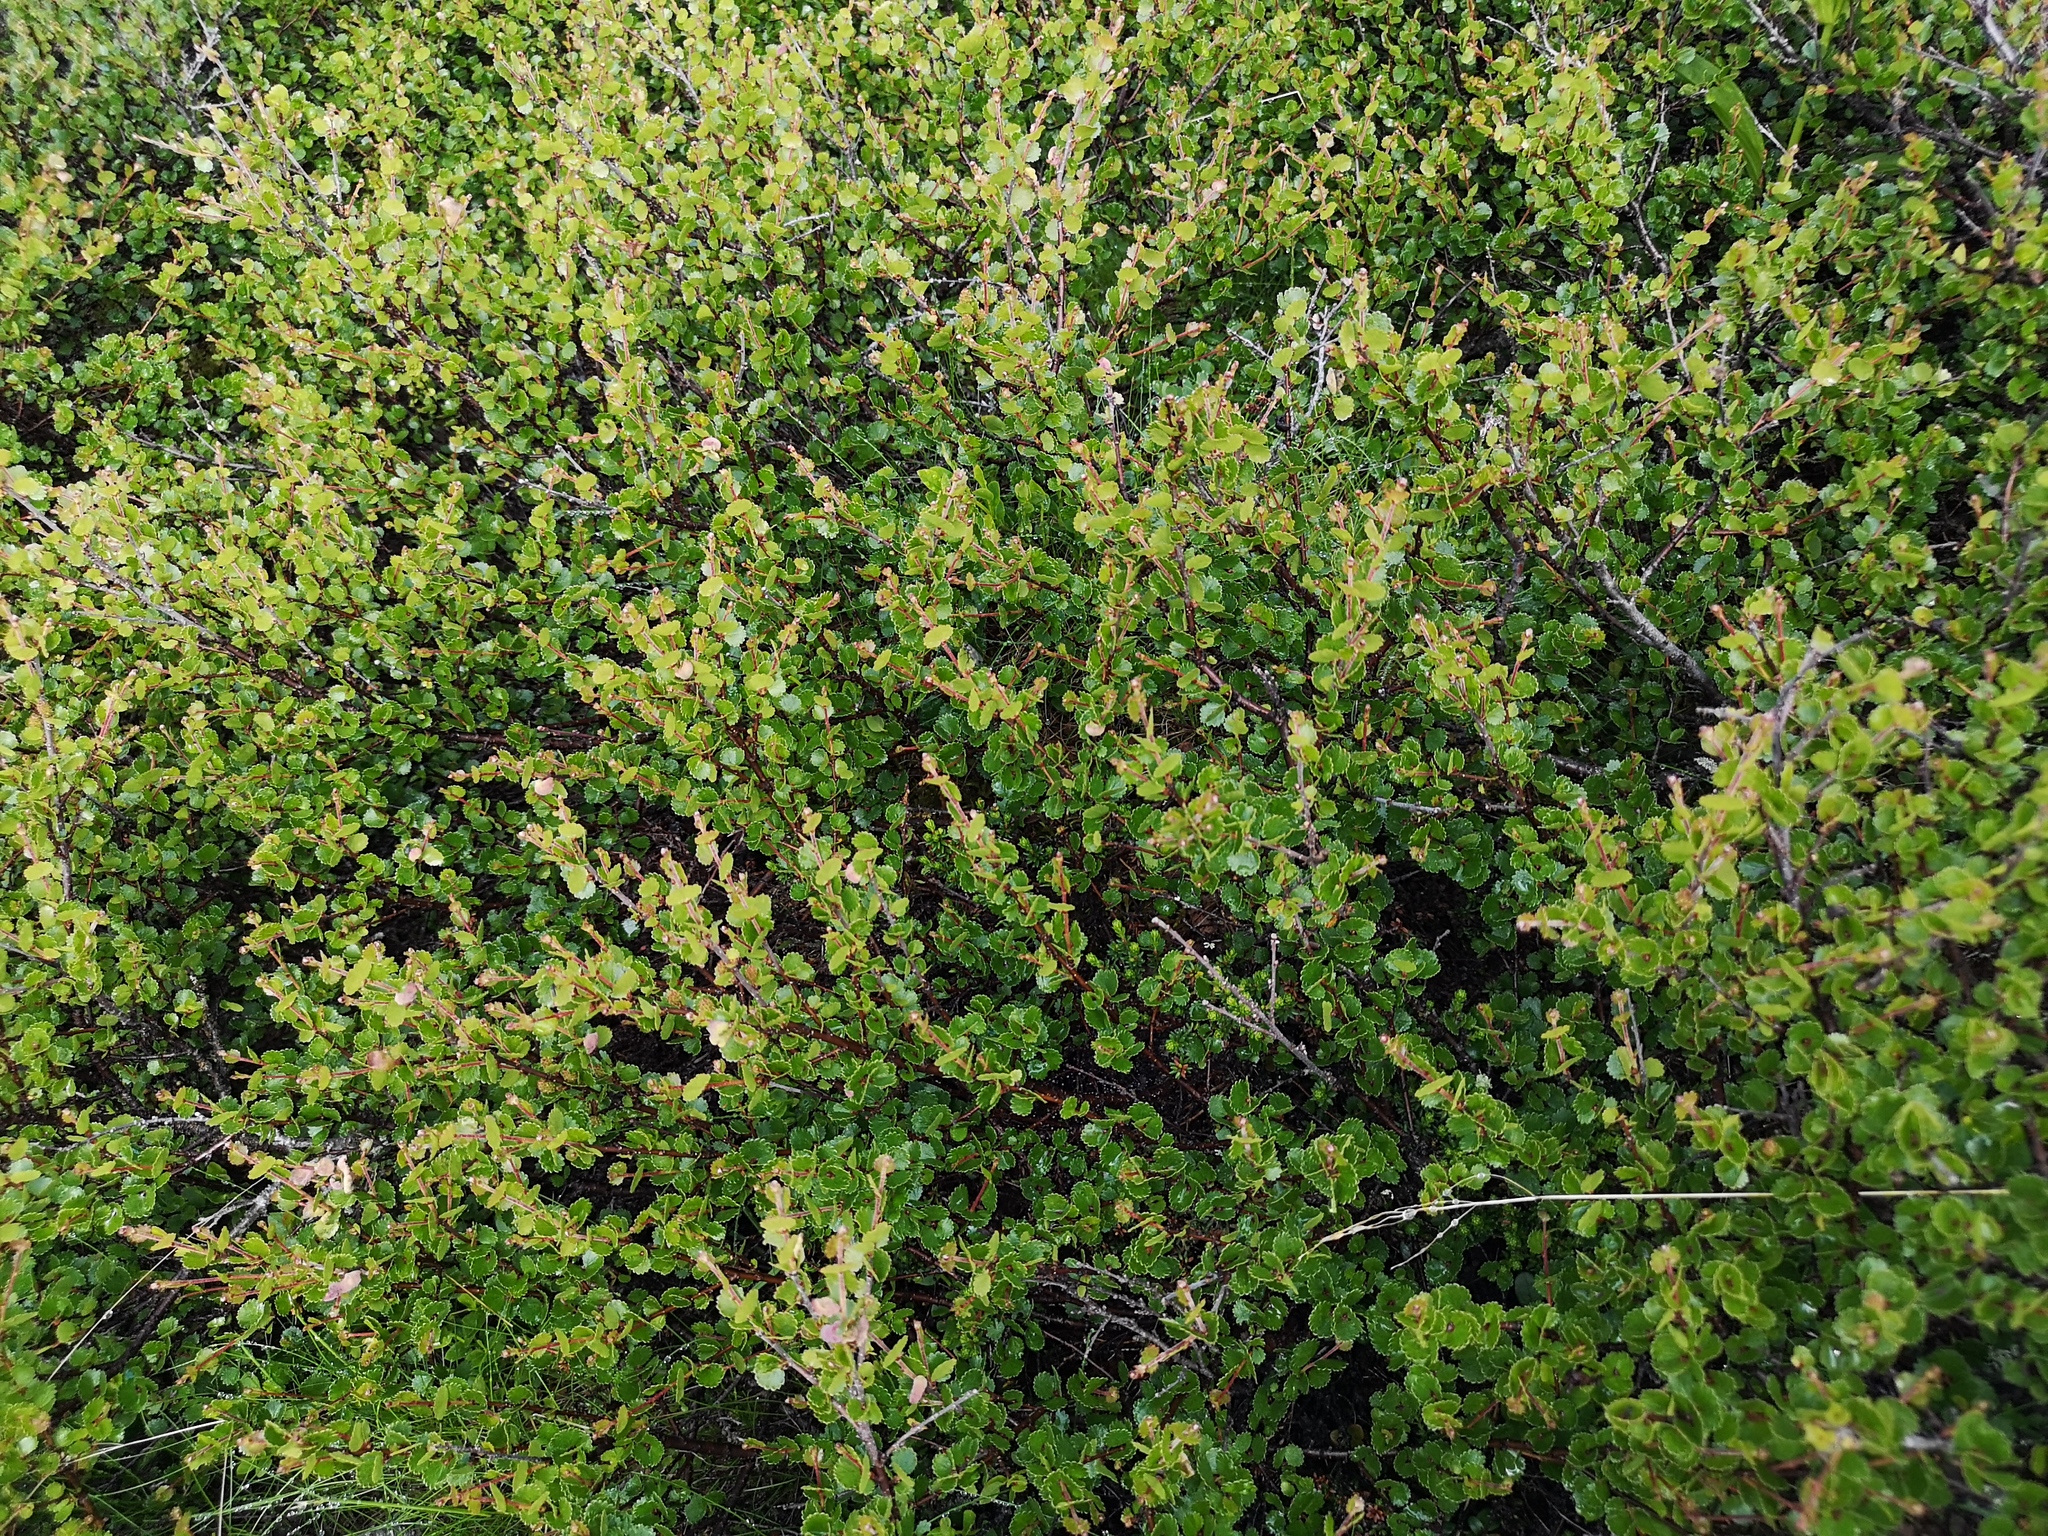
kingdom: Plantae
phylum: Tracheophyta
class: Magnoliopsida
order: Fagales
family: Betulaceae
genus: Betula
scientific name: Betula nana
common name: Arctic dwarf birch
